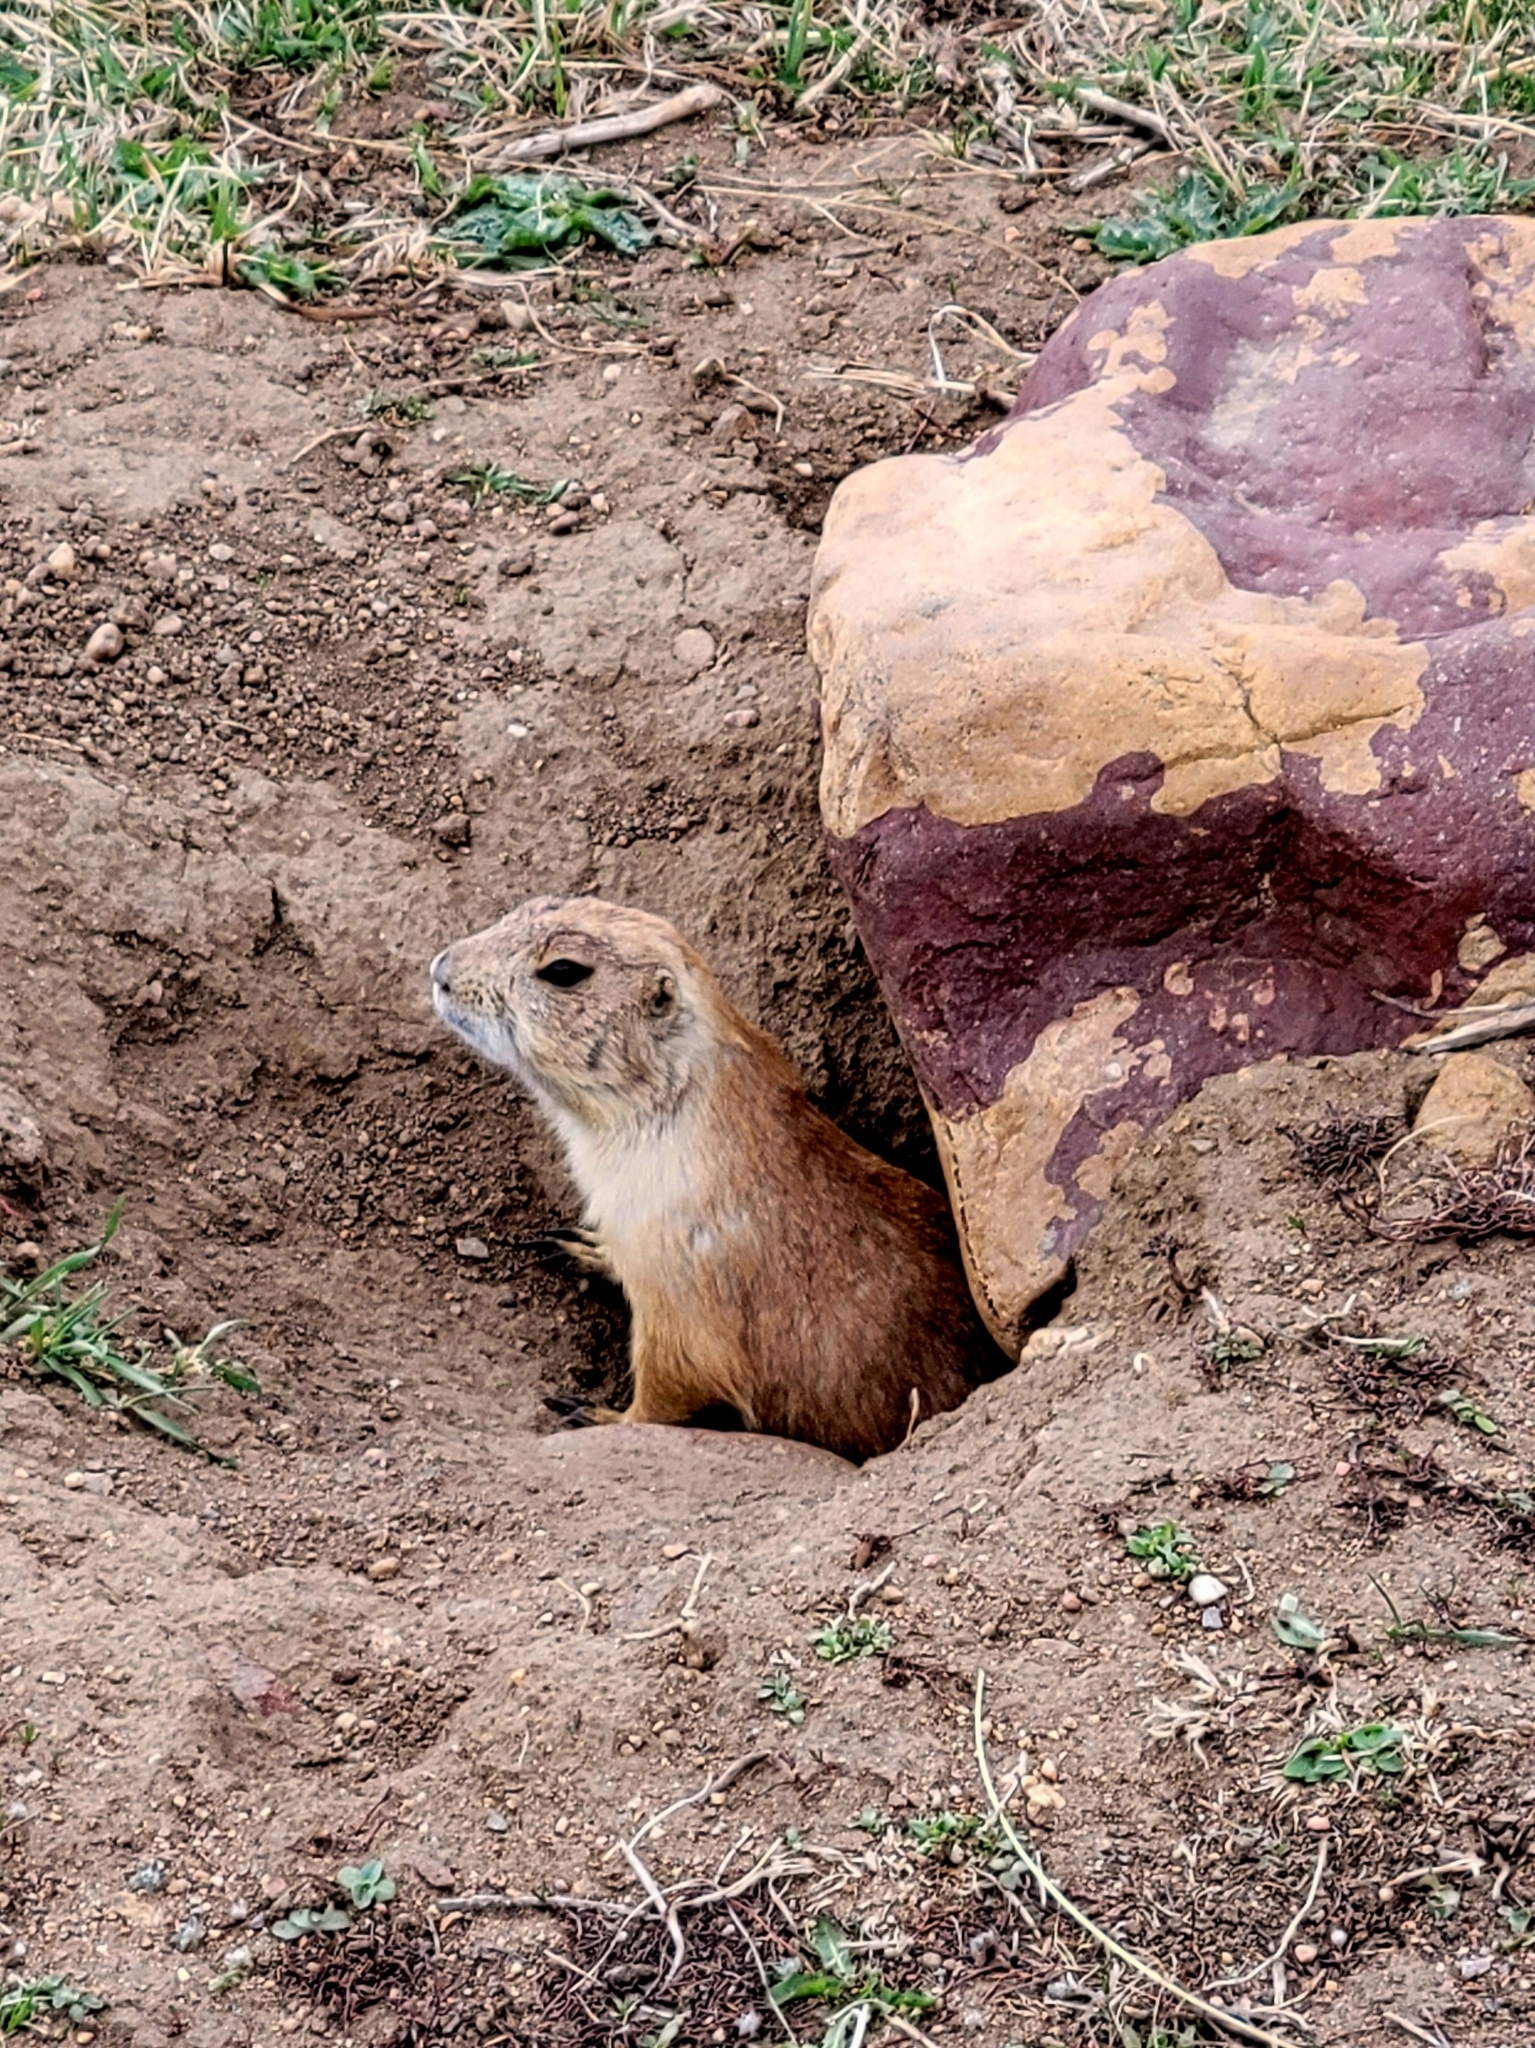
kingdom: Animalia
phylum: Chordata
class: Mammalia
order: Rodentia
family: Sciuridae
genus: Cynomys
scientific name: Cynomys ludovicianus
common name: Black-tailed prairie dog
